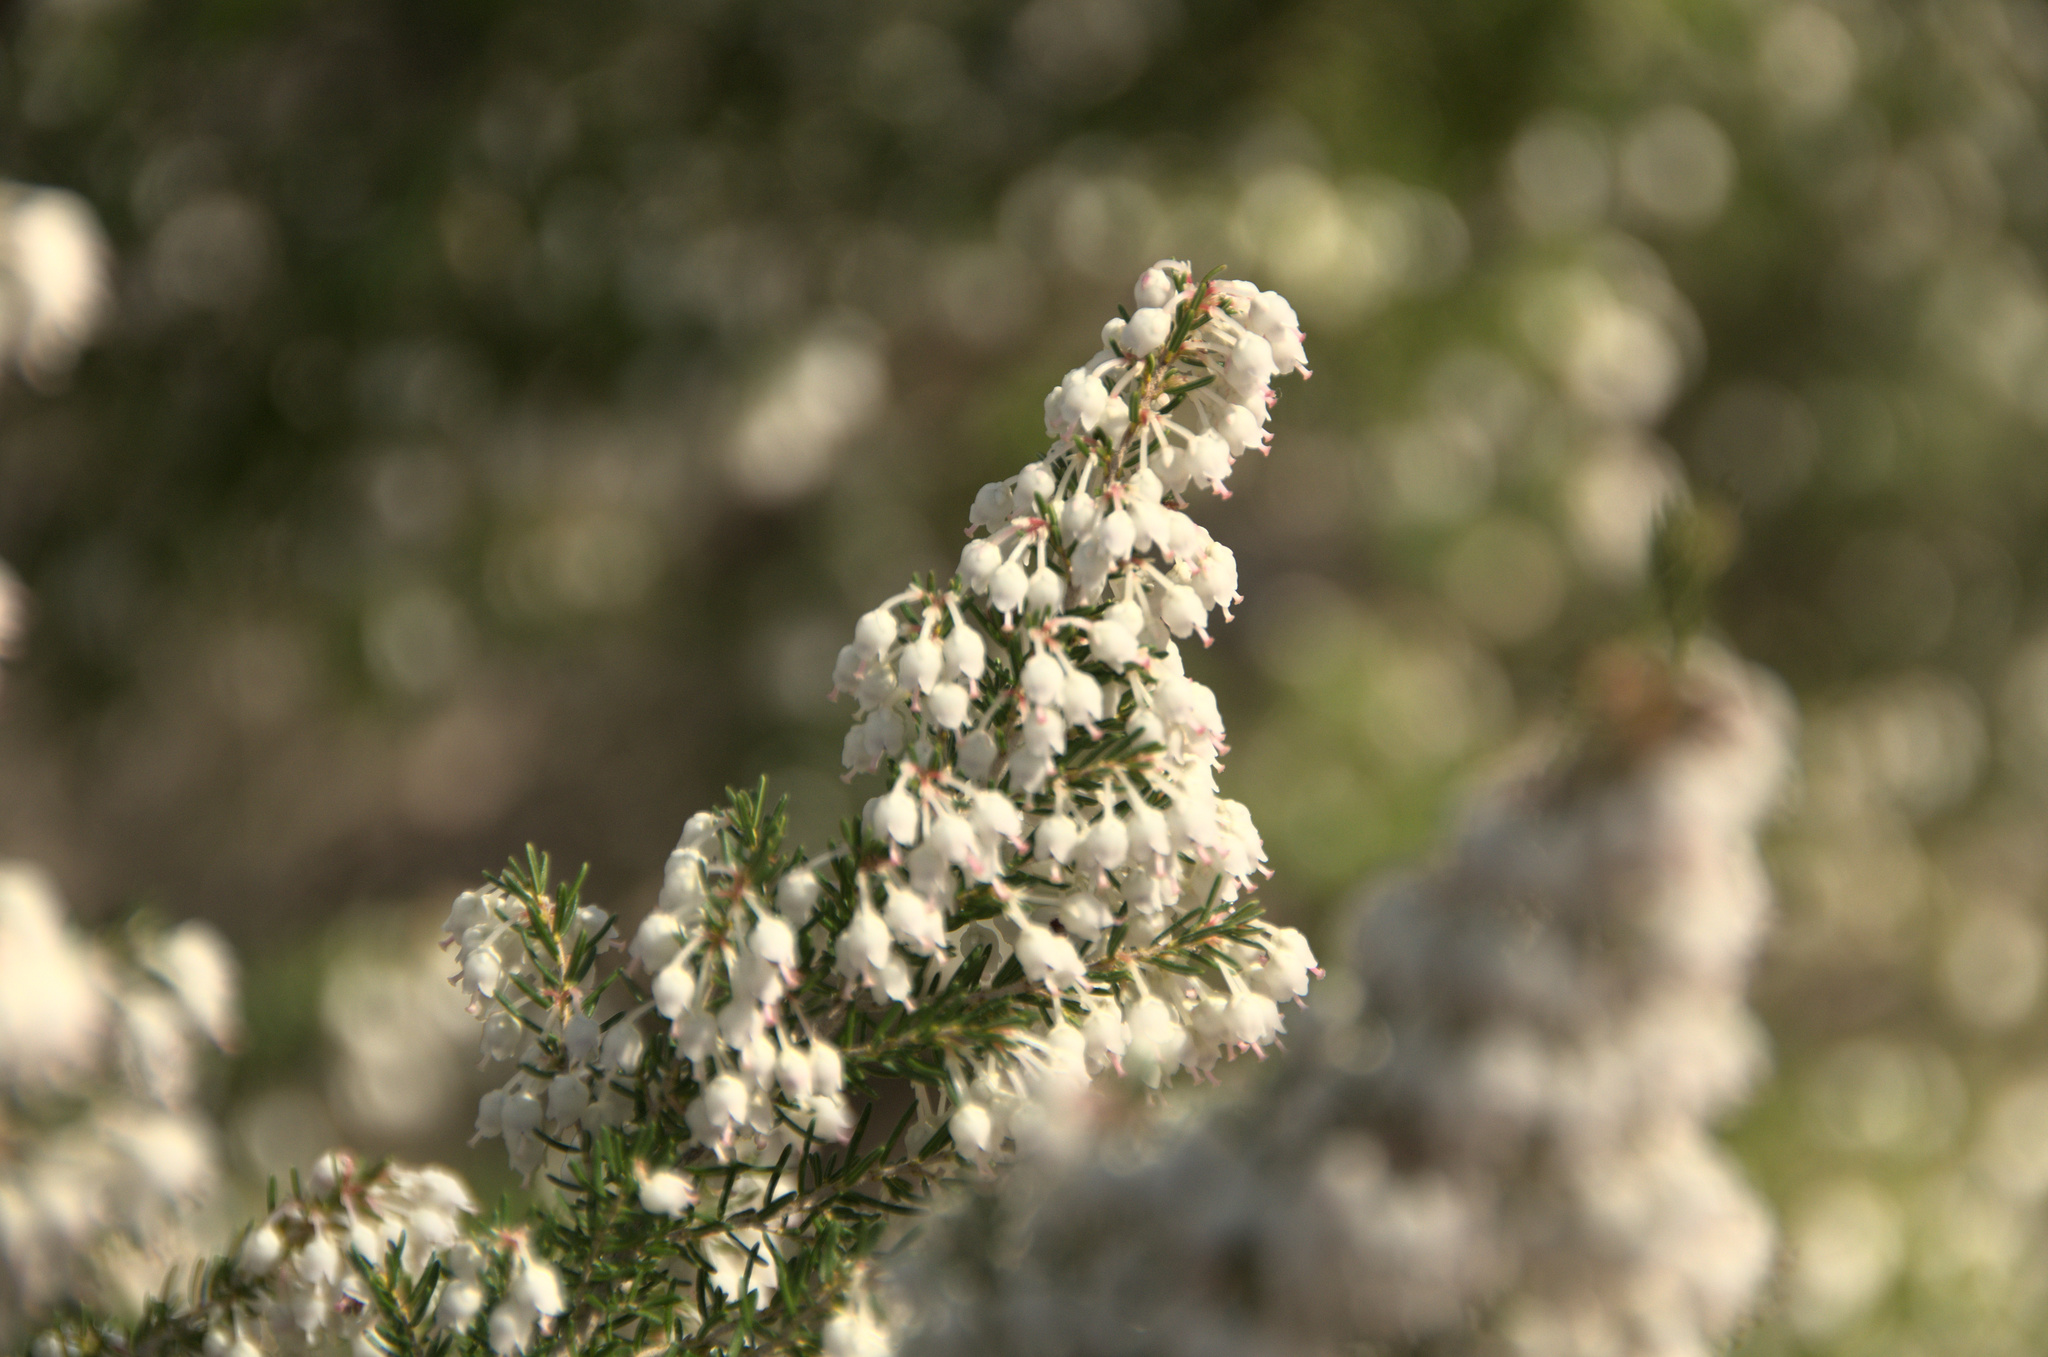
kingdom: Plantae
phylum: Tracheophyta
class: Magnoliopsida
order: Ericales
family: Ericaceae
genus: Erica
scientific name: Erica arborea
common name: Tree heath
